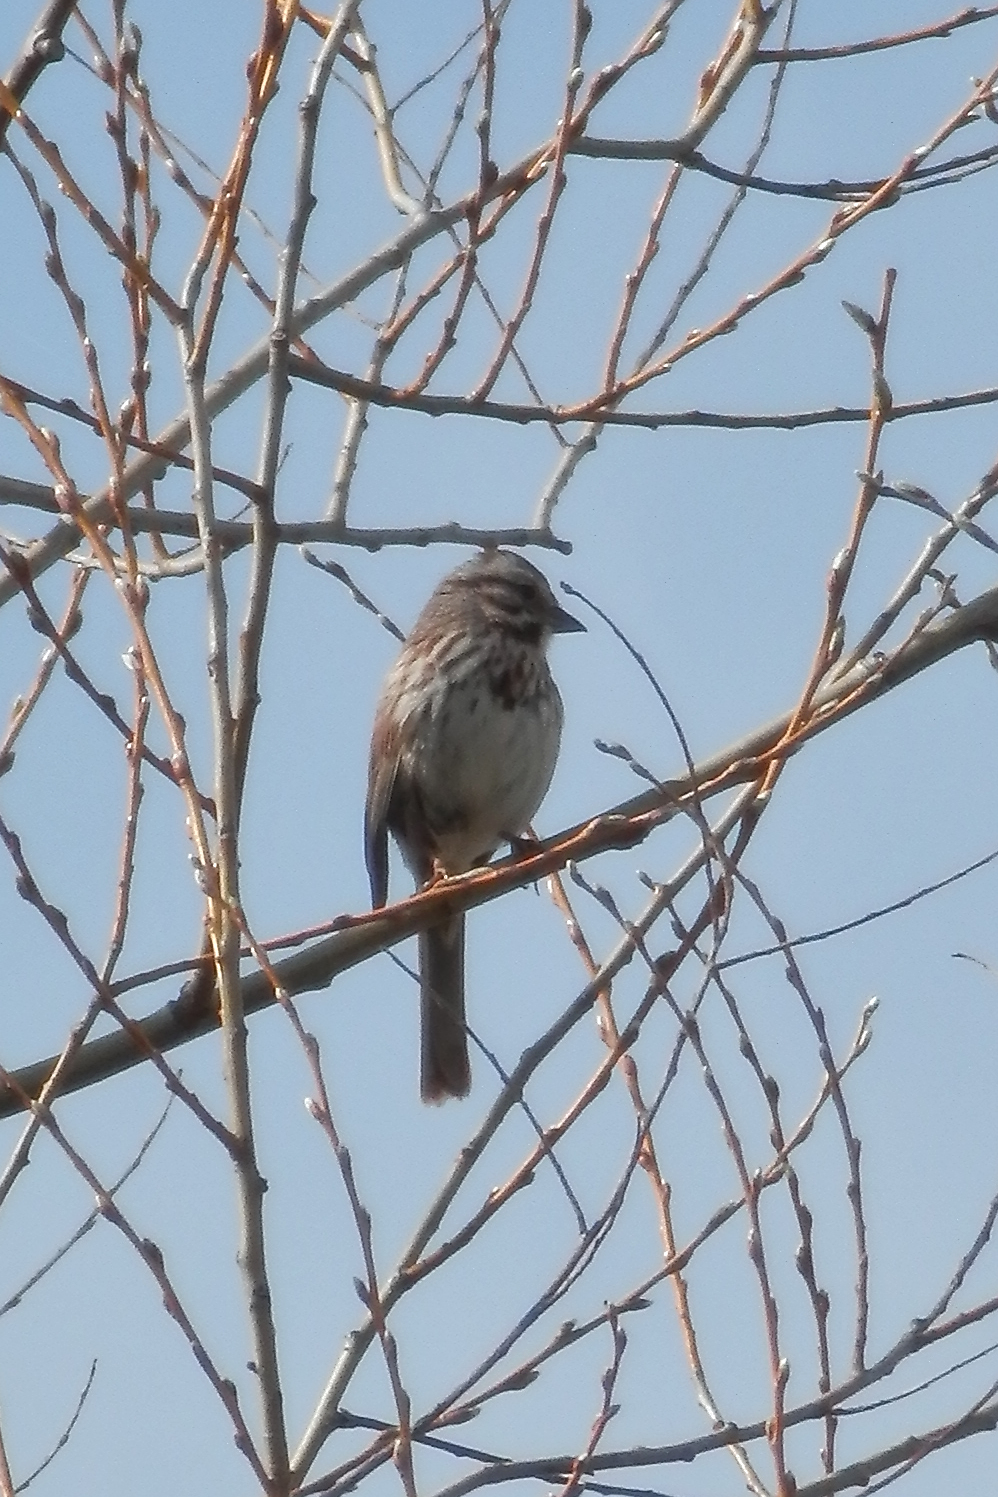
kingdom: Animalia
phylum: Chordata
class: Aves
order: Passeriformes
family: Passerellidae
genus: Melospiza
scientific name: Melospiza melodia
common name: Song sparrow
